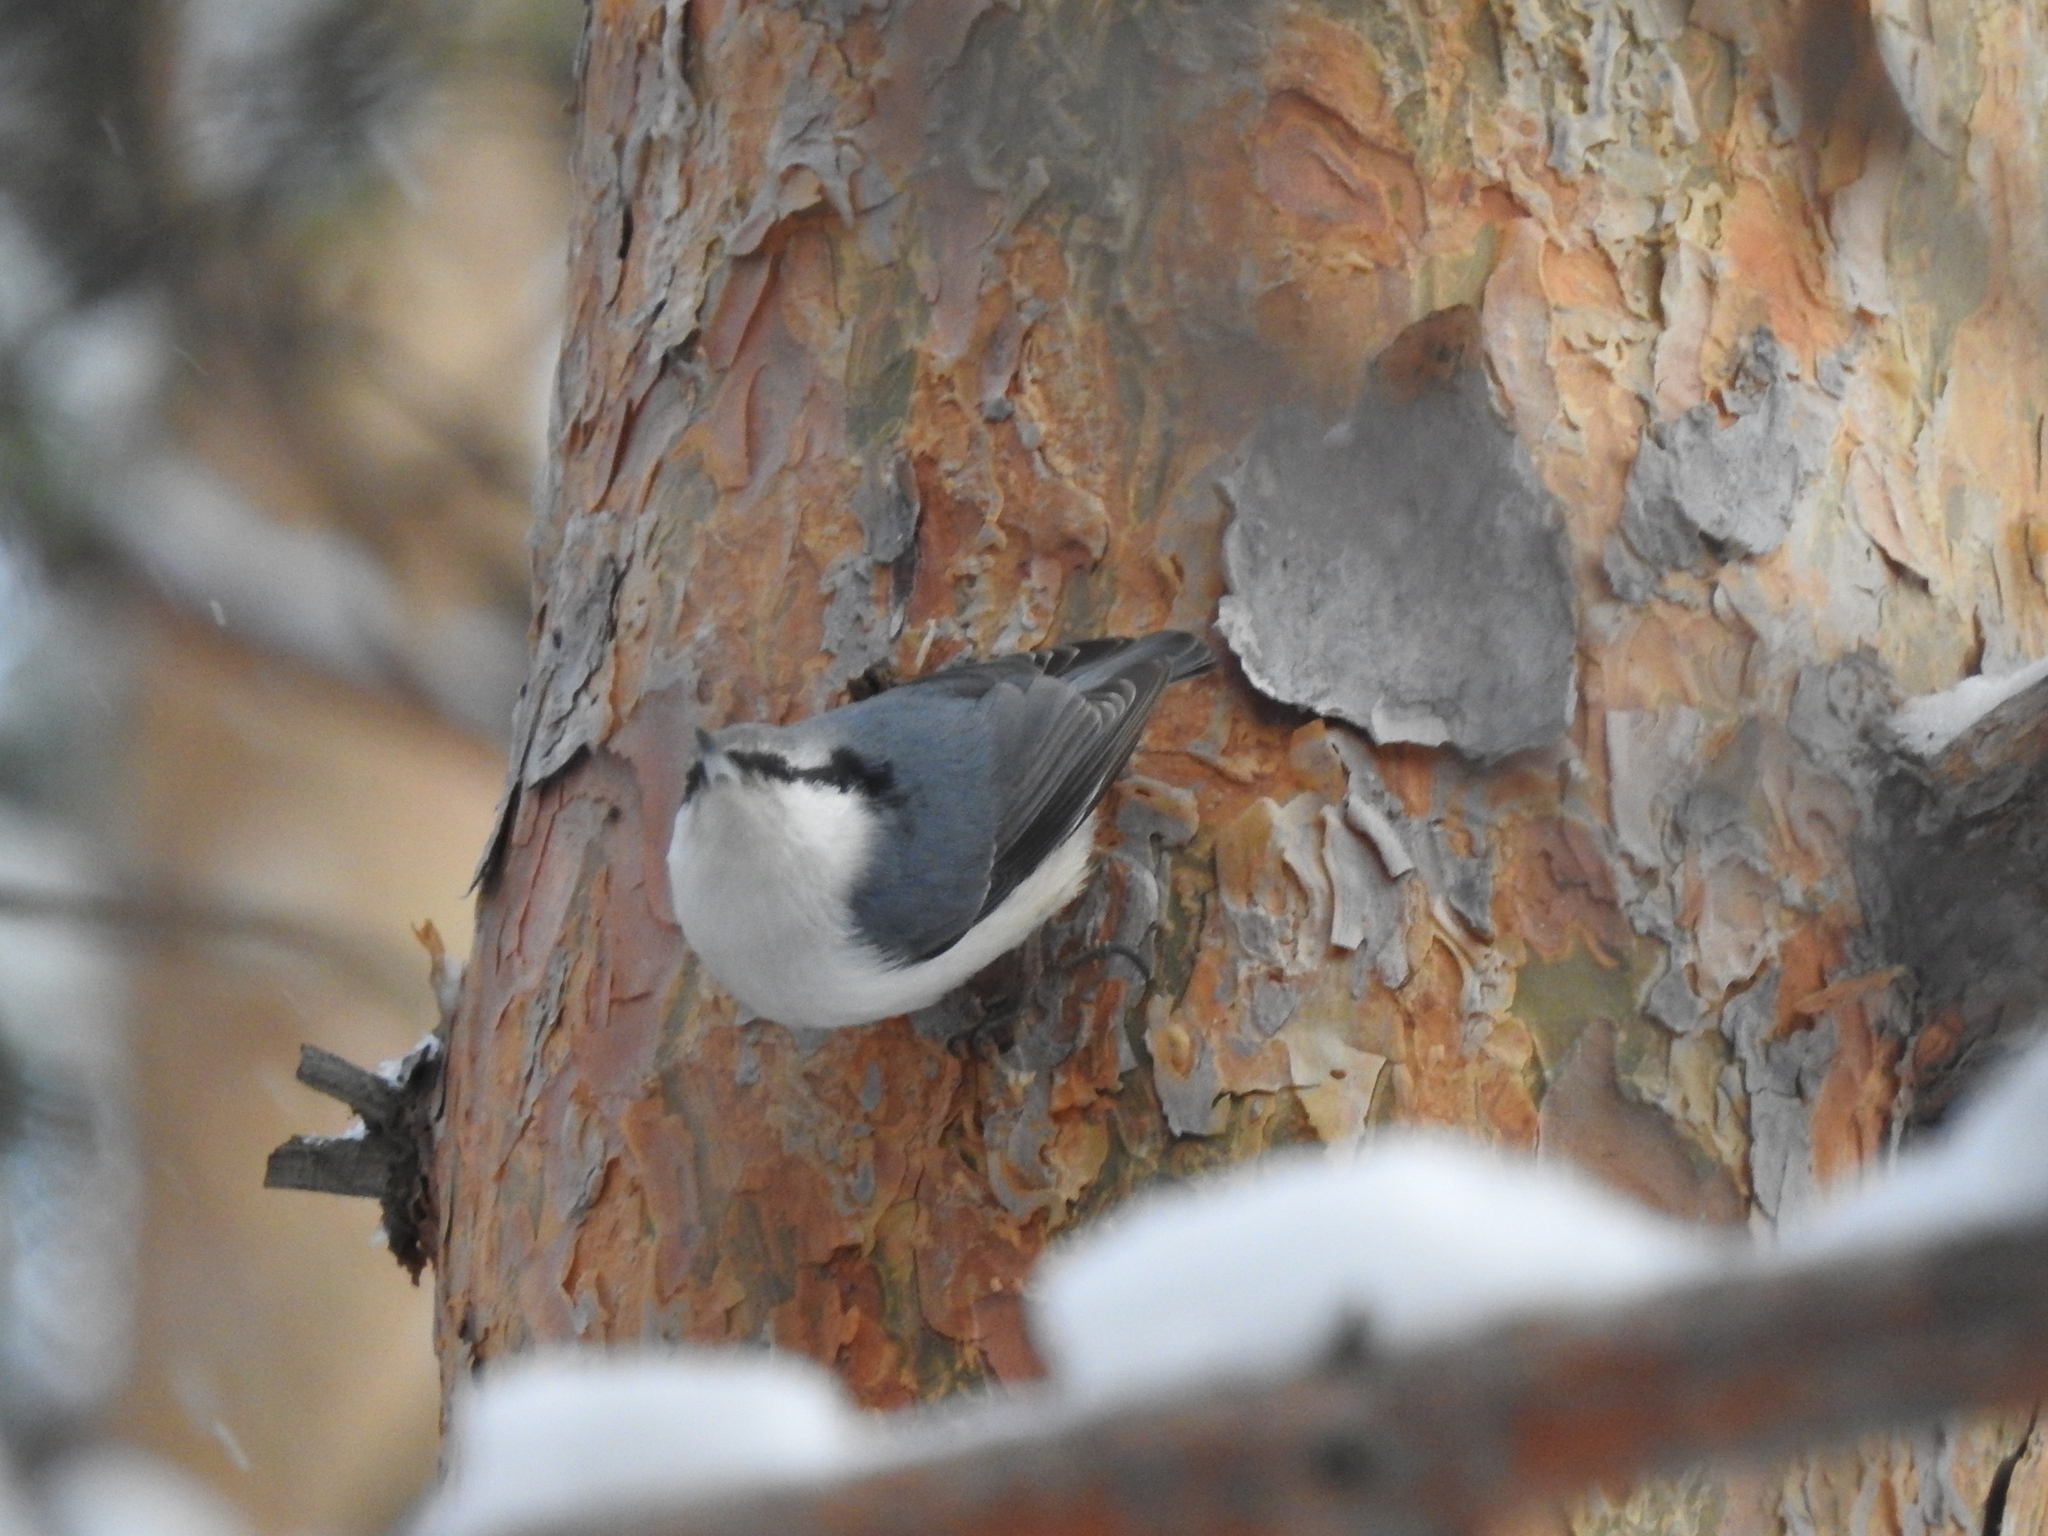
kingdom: Animalia
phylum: Chordata
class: Aves
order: Passeriformes
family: Sittidae
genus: Sitta
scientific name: Sitta europaea
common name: Eurasian nuthatch
